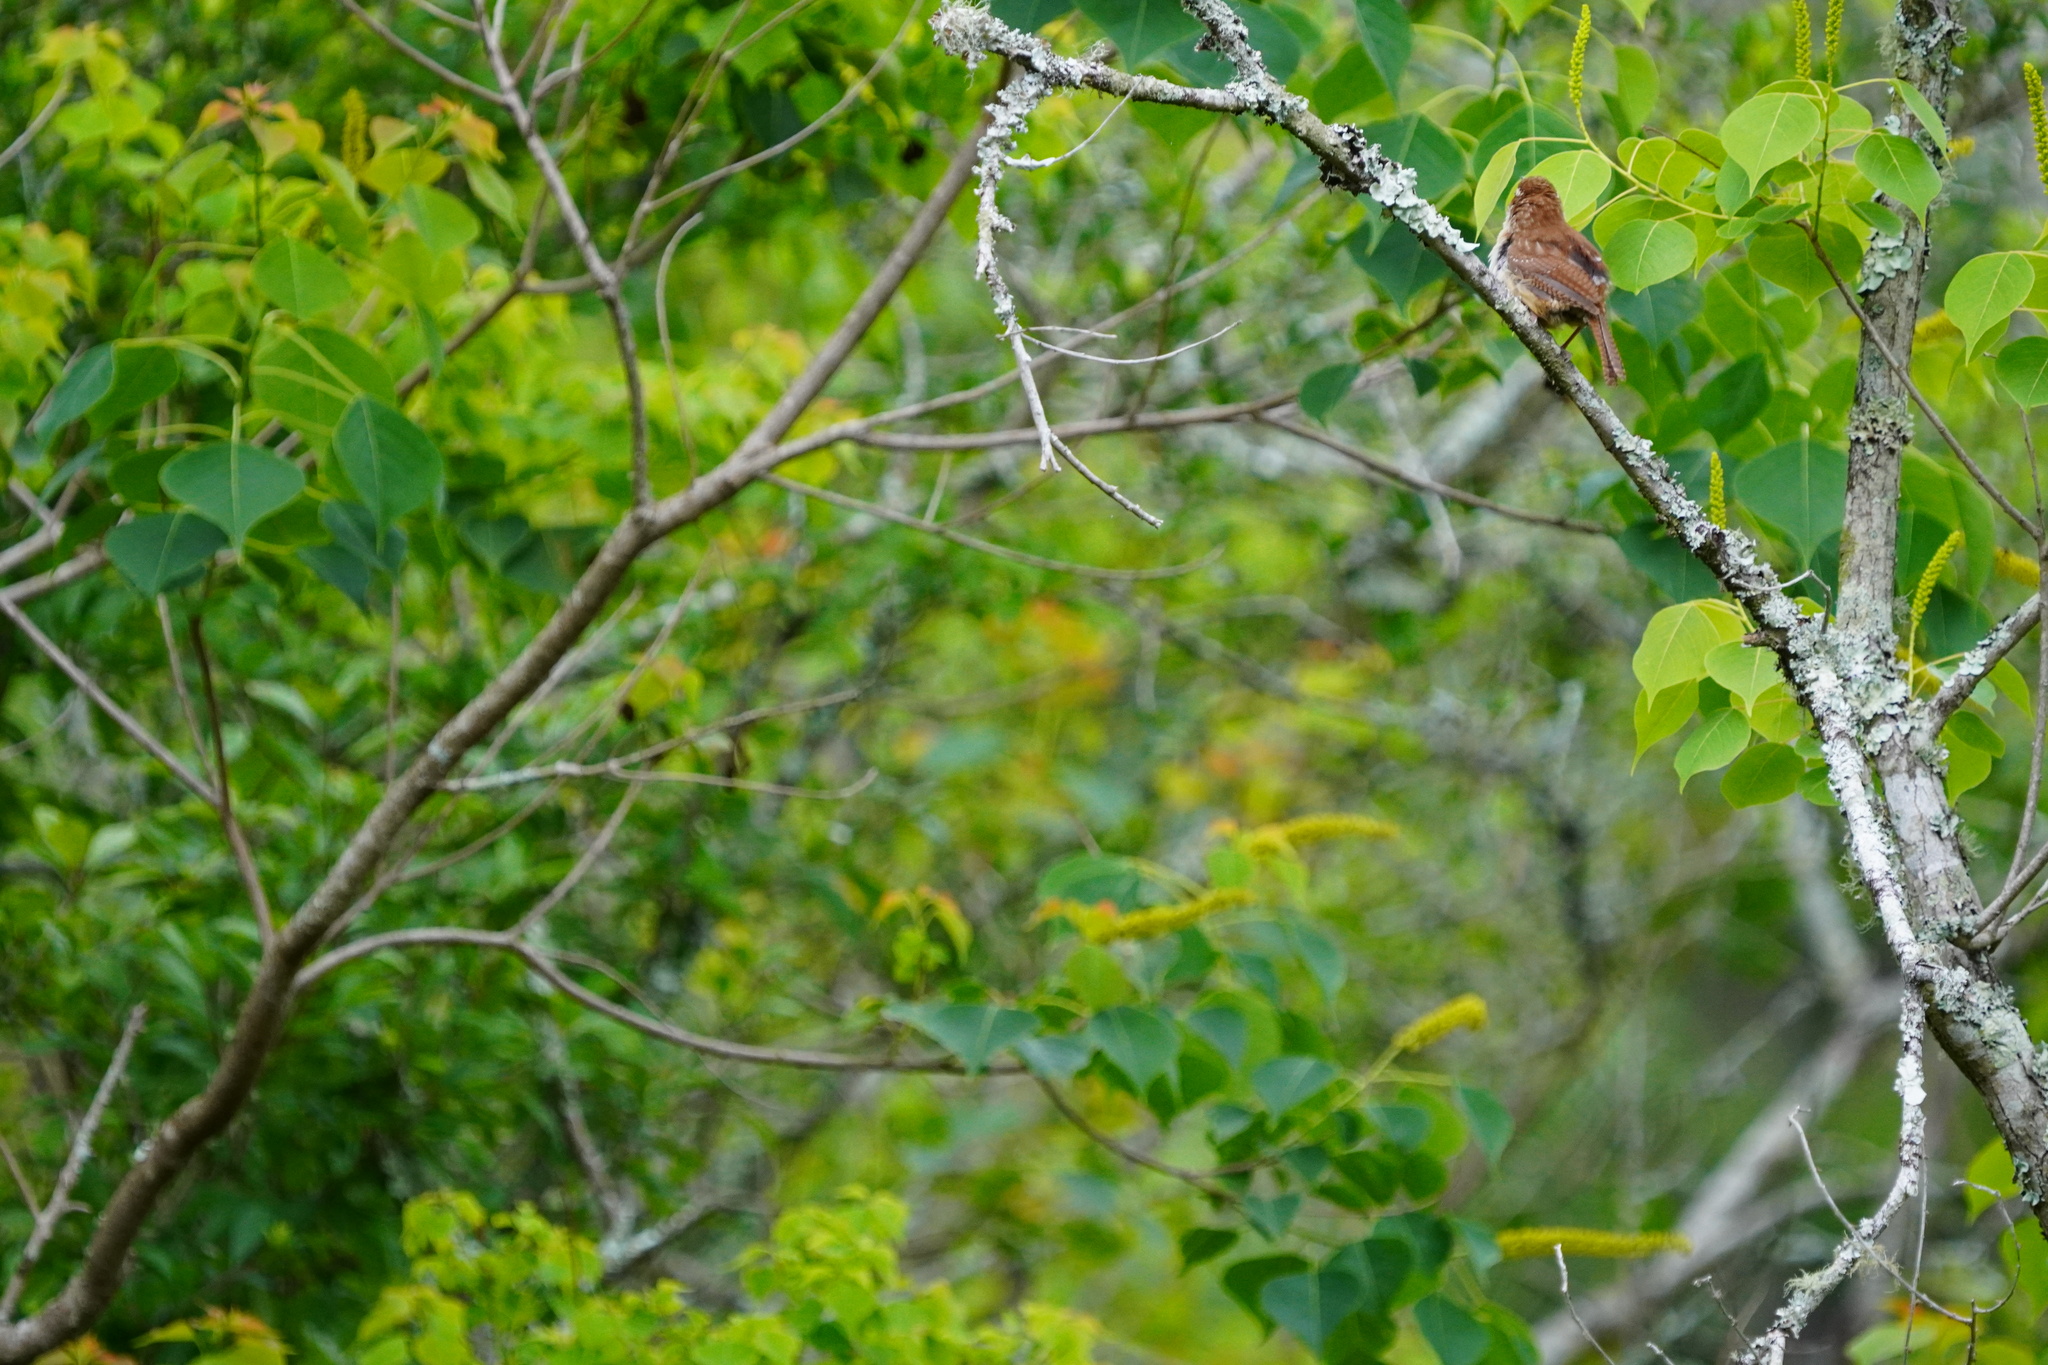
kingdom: Animalia
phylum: Chordata
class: Aves
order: Passeriformes
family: Troglodytidae
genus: Thryothorus
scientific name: Thryothorus ludovicianus
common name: Carolina wren
